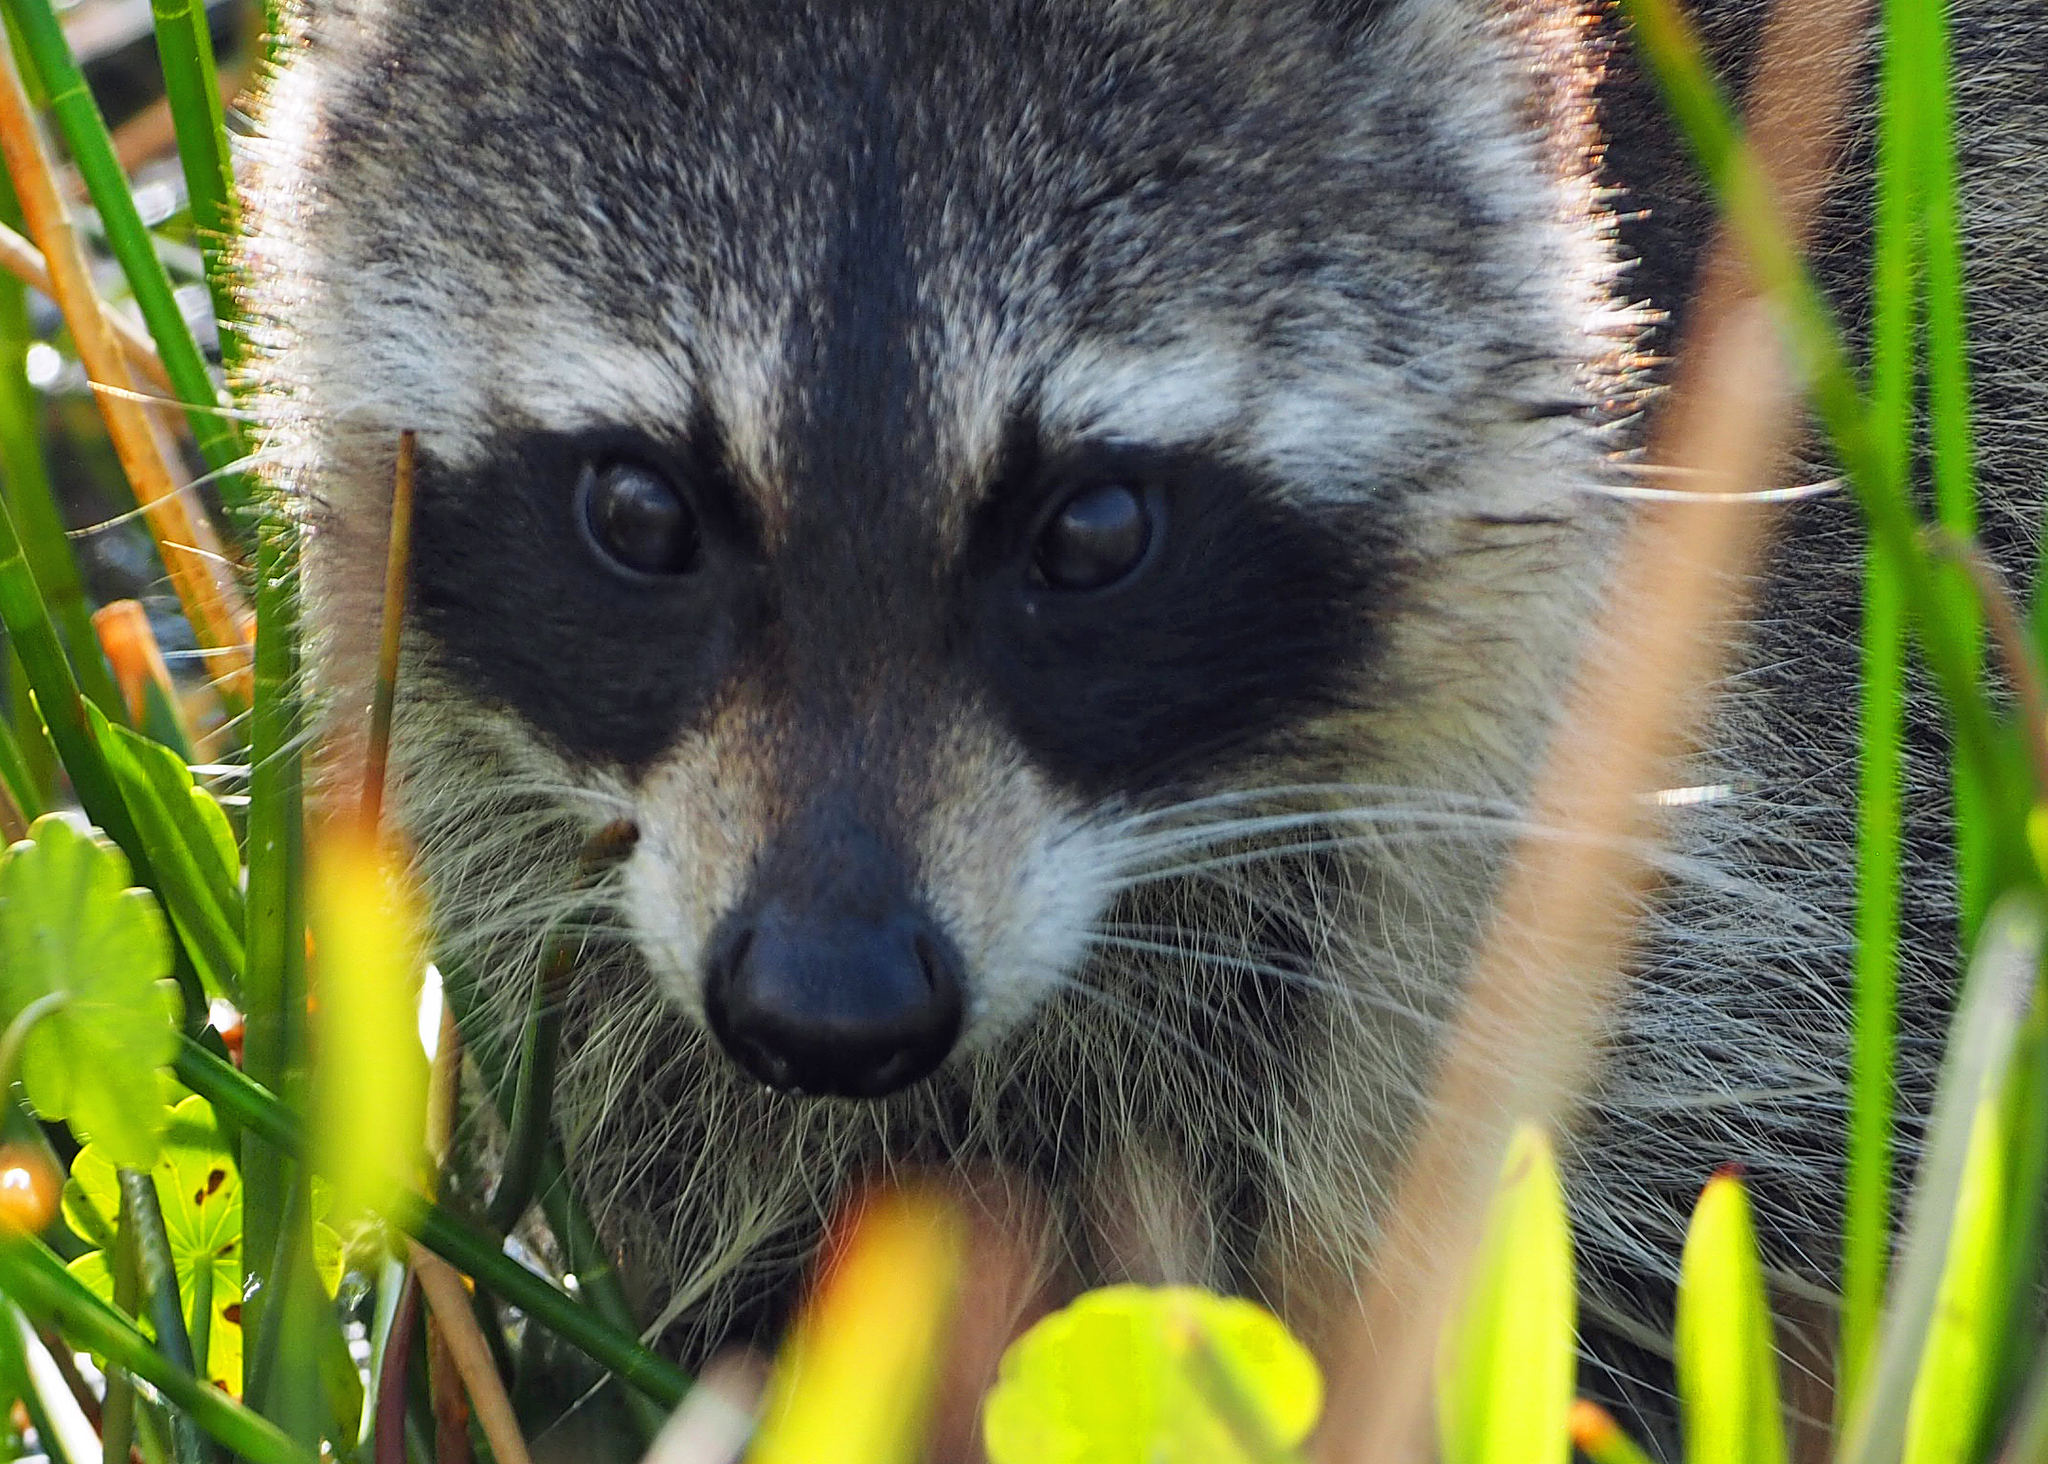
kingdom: Animalia
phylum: Chordata
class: Mammalia
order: Carnivora
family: Procyonidae
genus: Procyon
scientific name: Procyon lotor
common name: Raccoon
